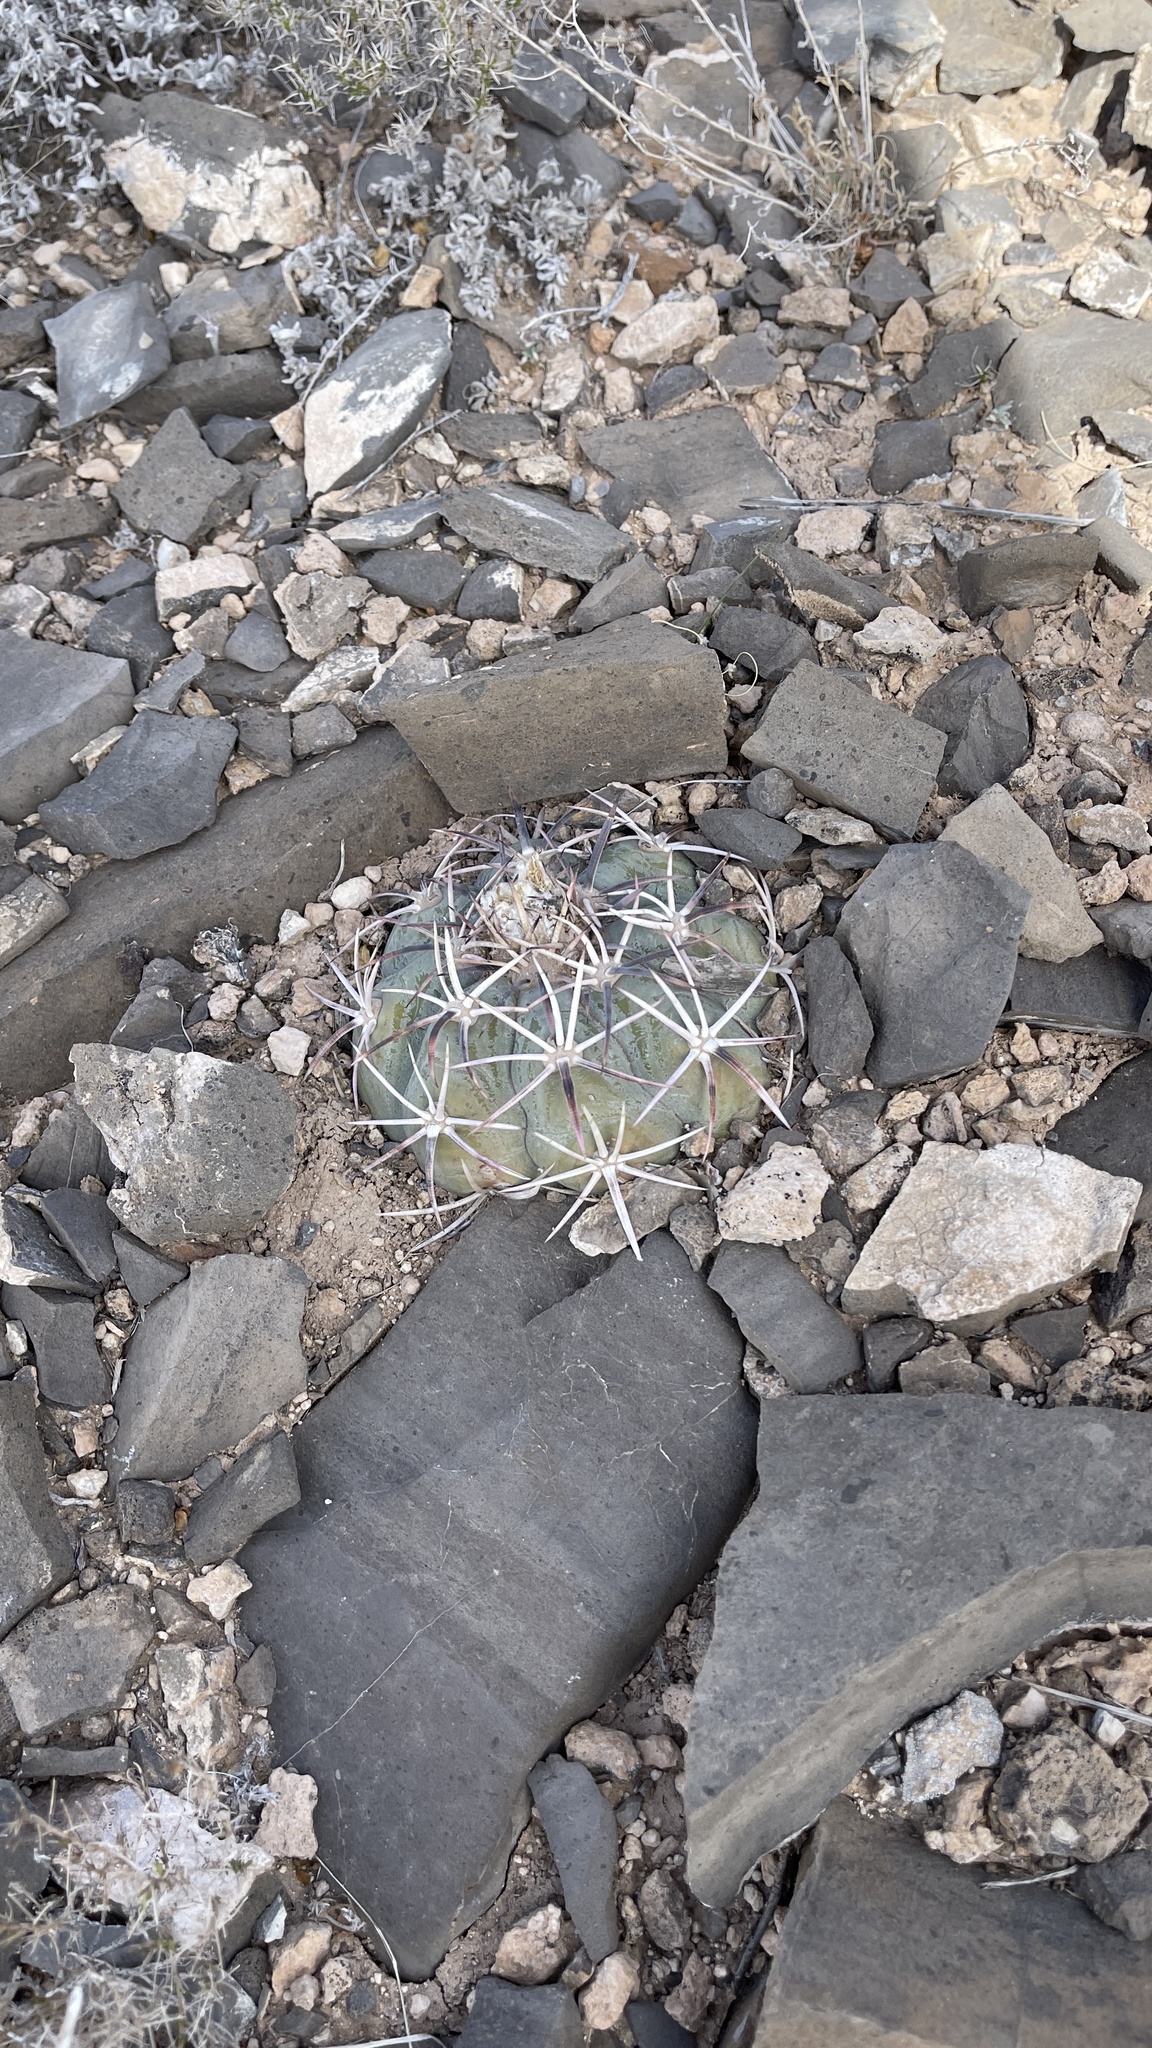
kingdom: Plantae
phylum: Tracheophyta
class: Magnoliopsida
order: Caryophyllales
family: Cactaceae
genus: Echinocactus
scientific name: Echinocactus horizonthalonius
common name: Devilshead
